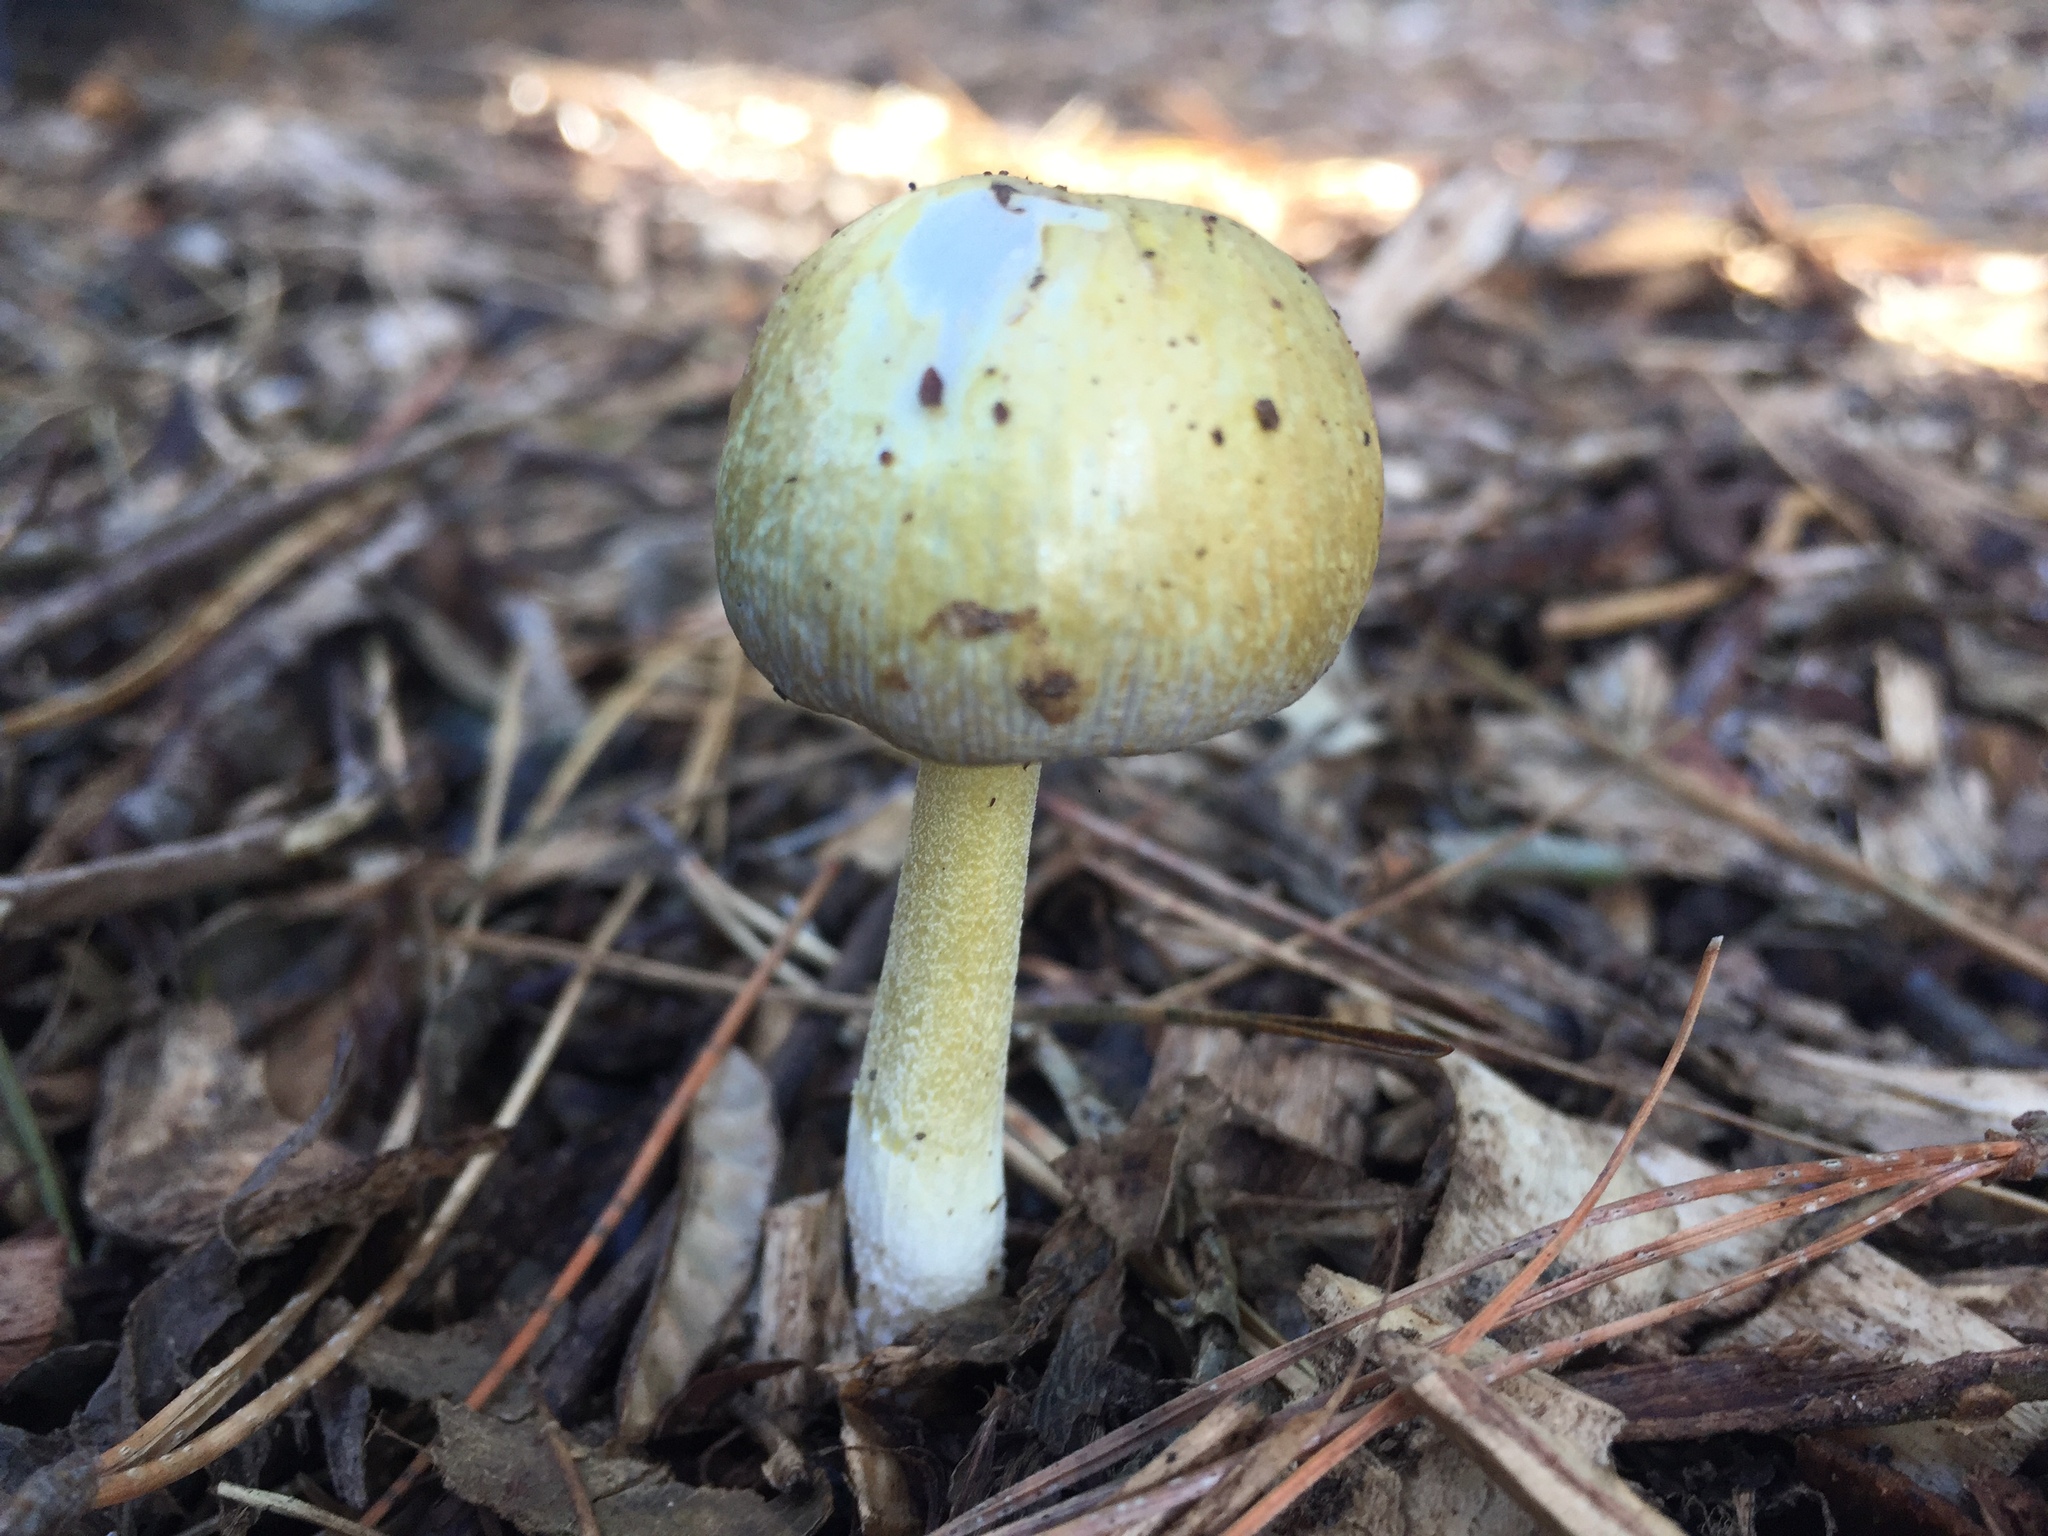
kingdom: Fungi
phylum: Basidiomycota
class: Agaricomycetes
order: Agaricales
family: Bolbitiaceae
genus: Bolbitius
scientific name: Bolbitius titubans
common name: Yellow fieldcap
